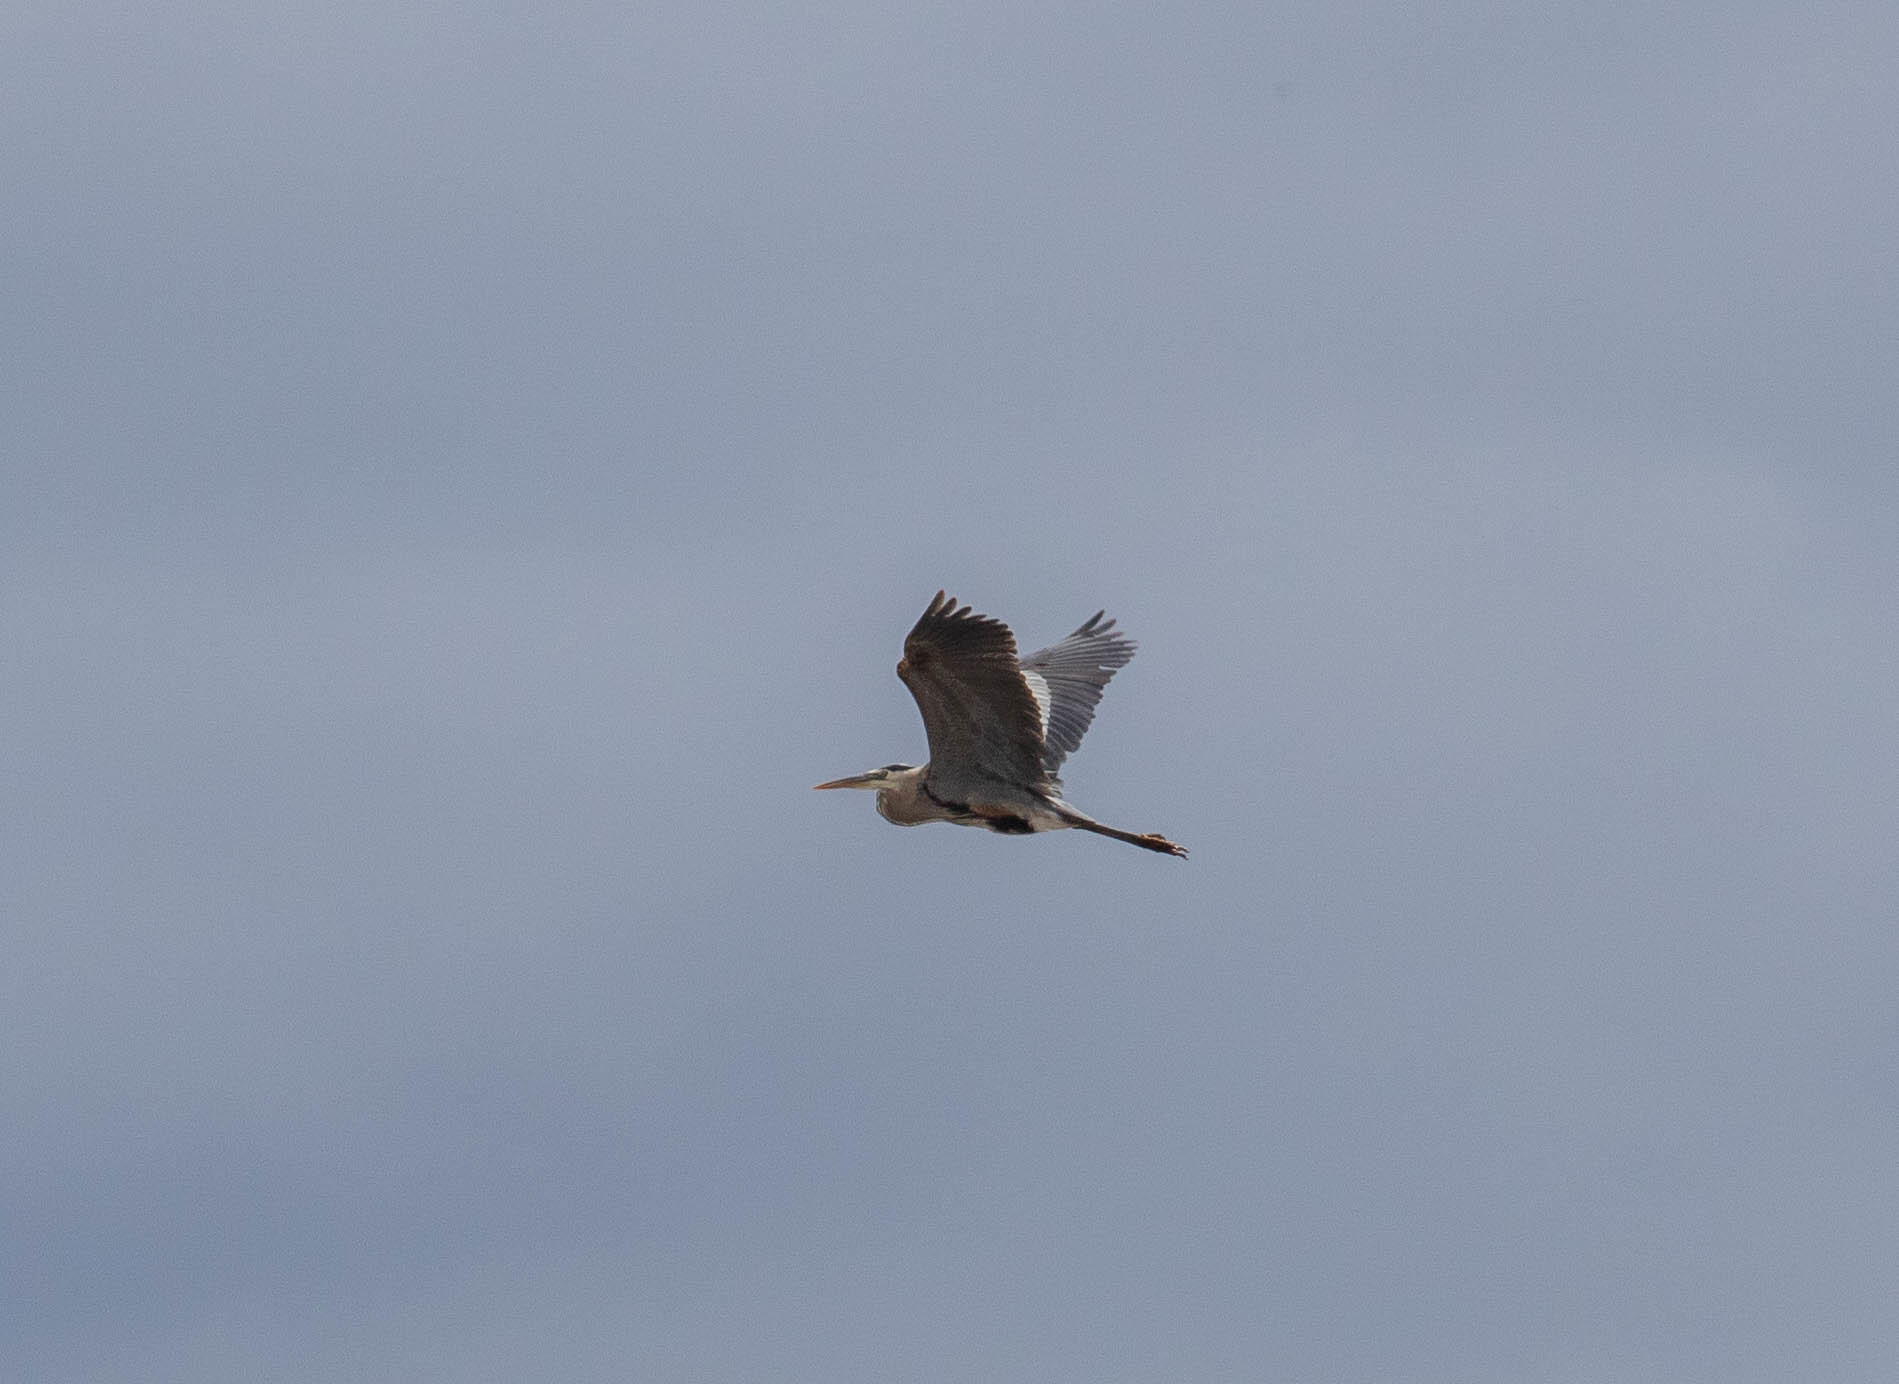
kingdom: Animalia
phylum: Chordata
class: Aves
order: Pelecaniformes
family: Ardeidae
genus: Ardea
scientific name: Ardea herodias
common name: Great blue heron
